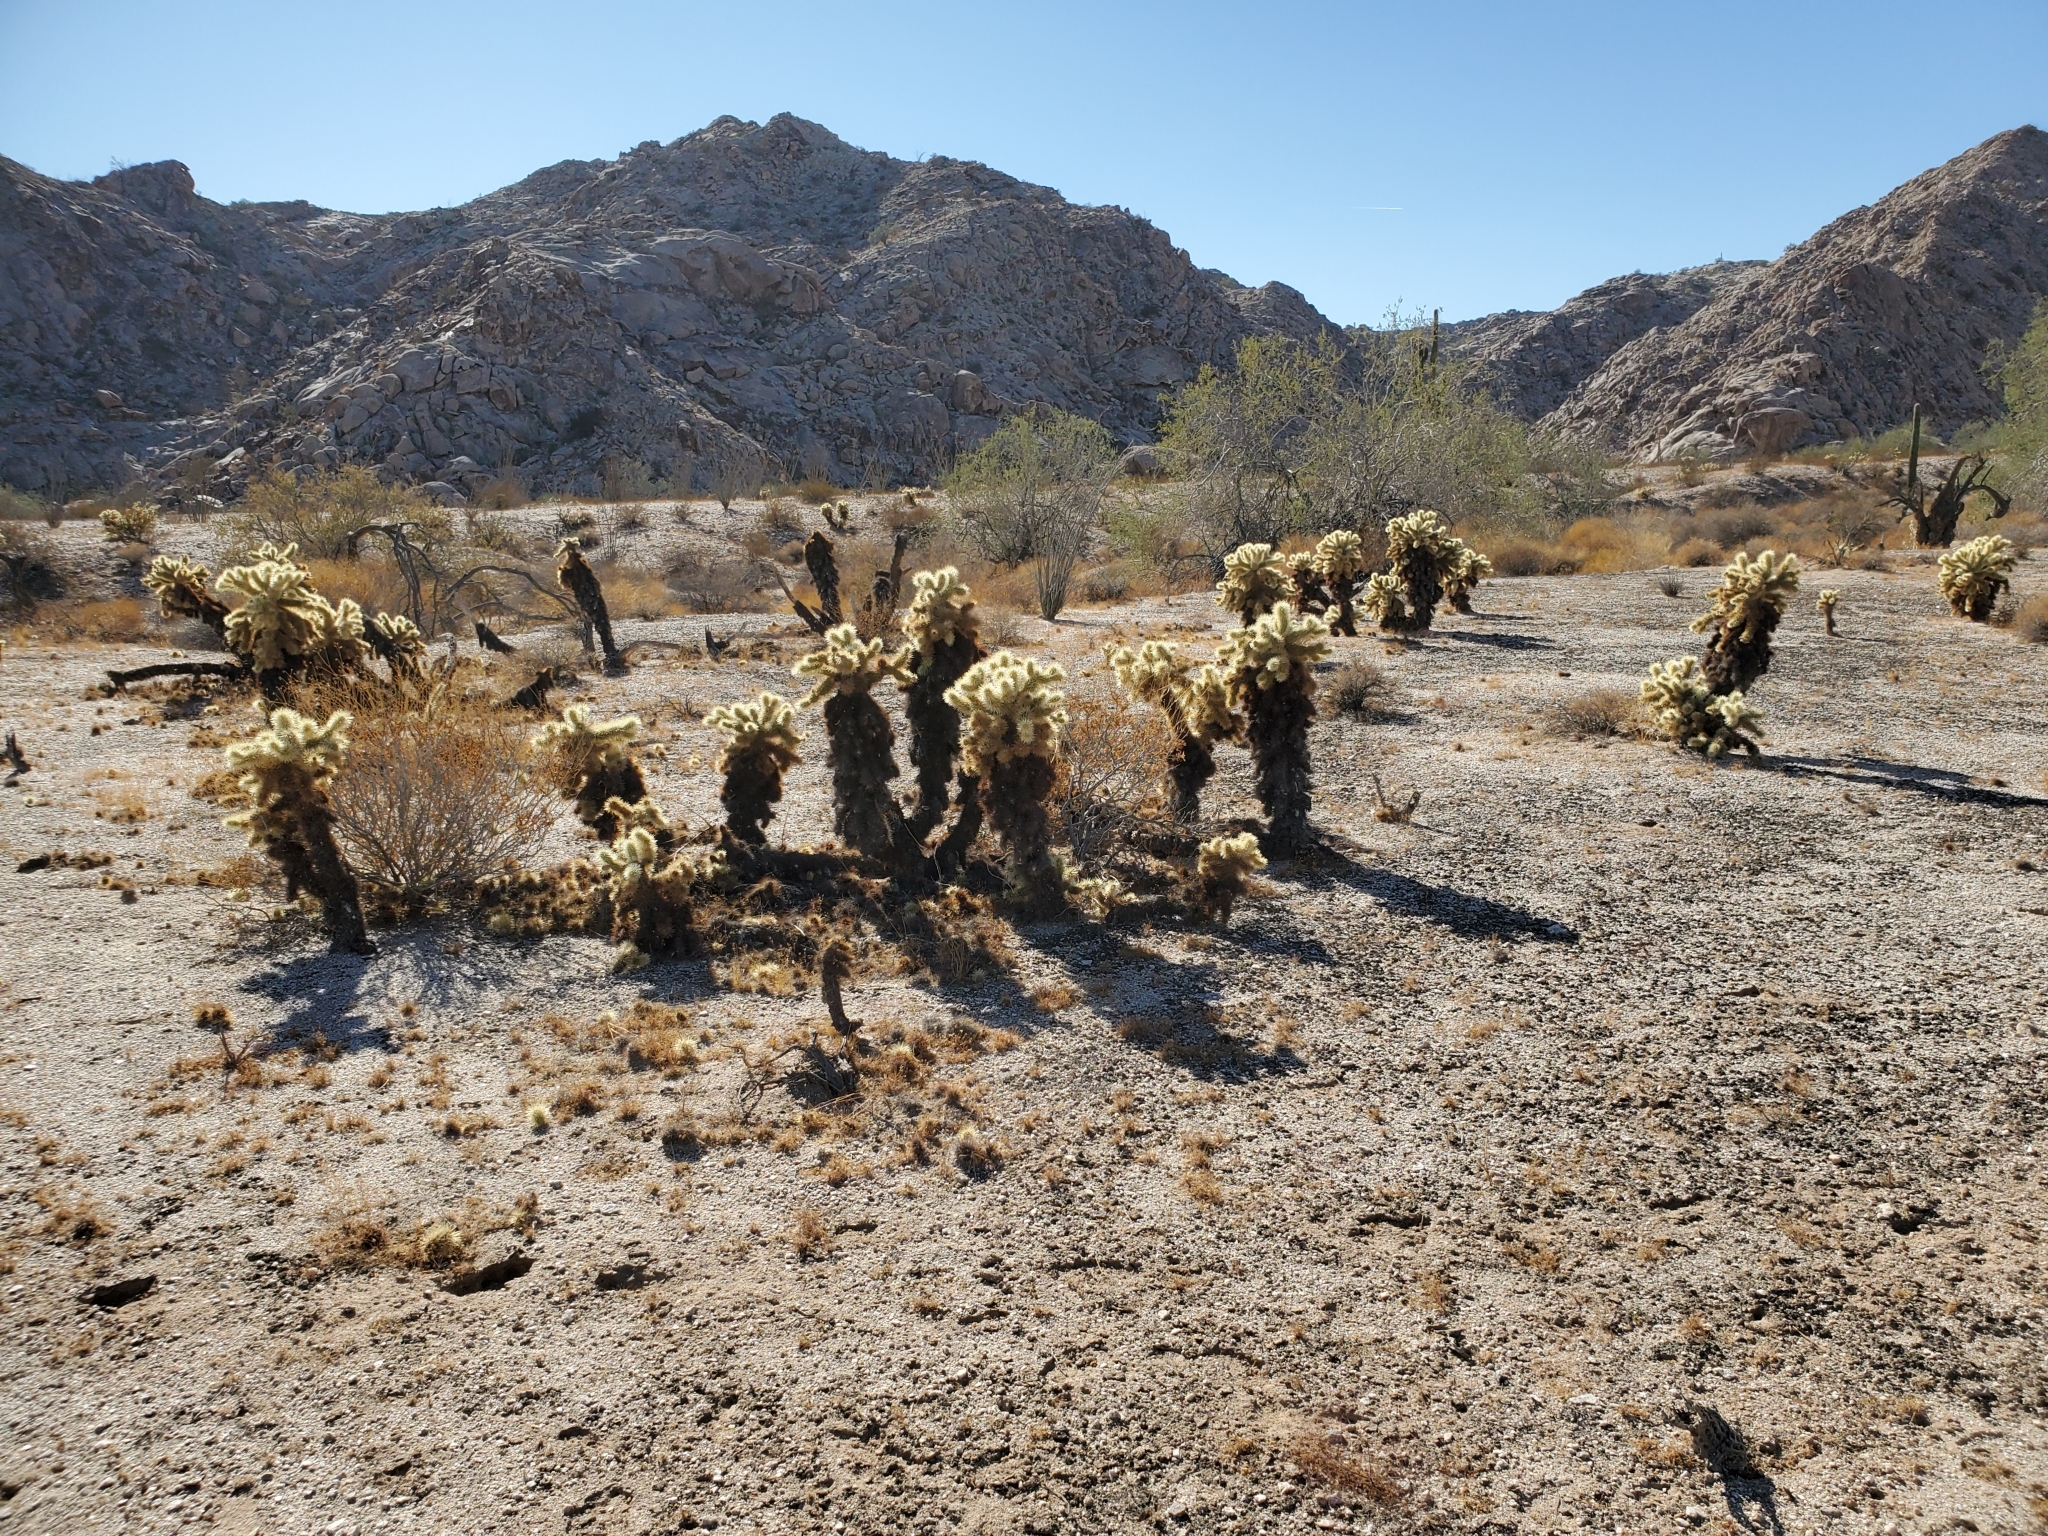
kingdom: Plantae
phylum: Tracheophyta
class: Magnoliopsida
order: Caryophyllales
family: Cactaceae
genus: Cylindropuntia
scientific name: Cylindropuntia fosbergii
